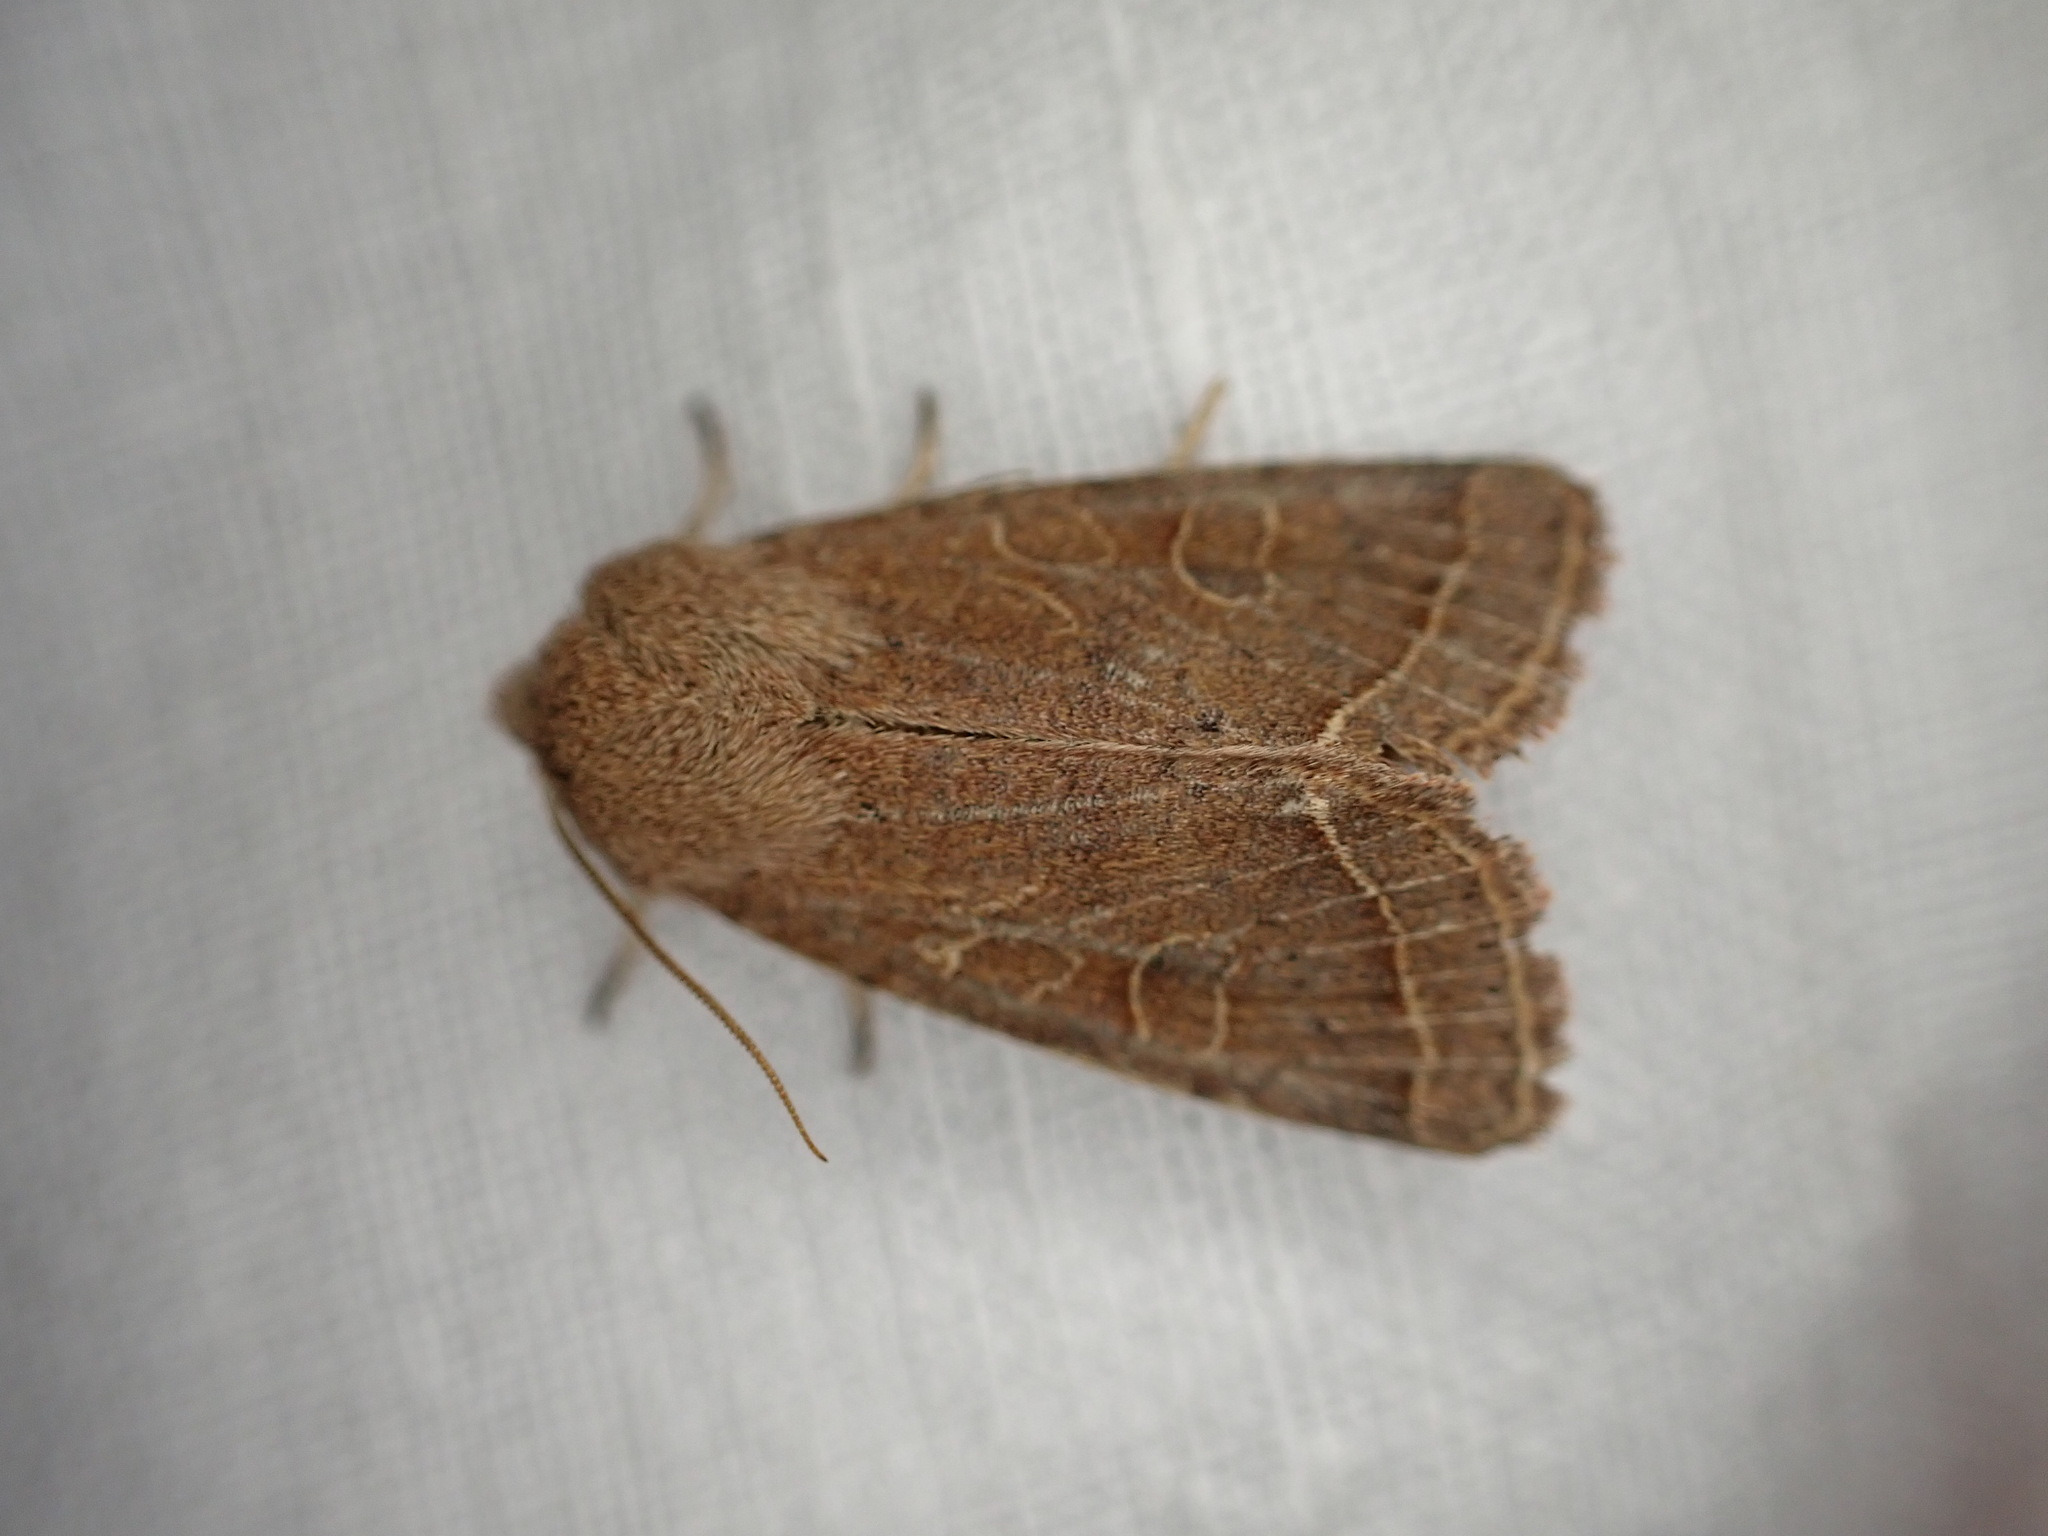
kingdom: Animalia
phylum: Arthropoda
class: Insecta
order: Lepidoptera
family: Noctuidae
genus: Orthosia
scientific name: Orthosia cerasi
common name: Common quaker
